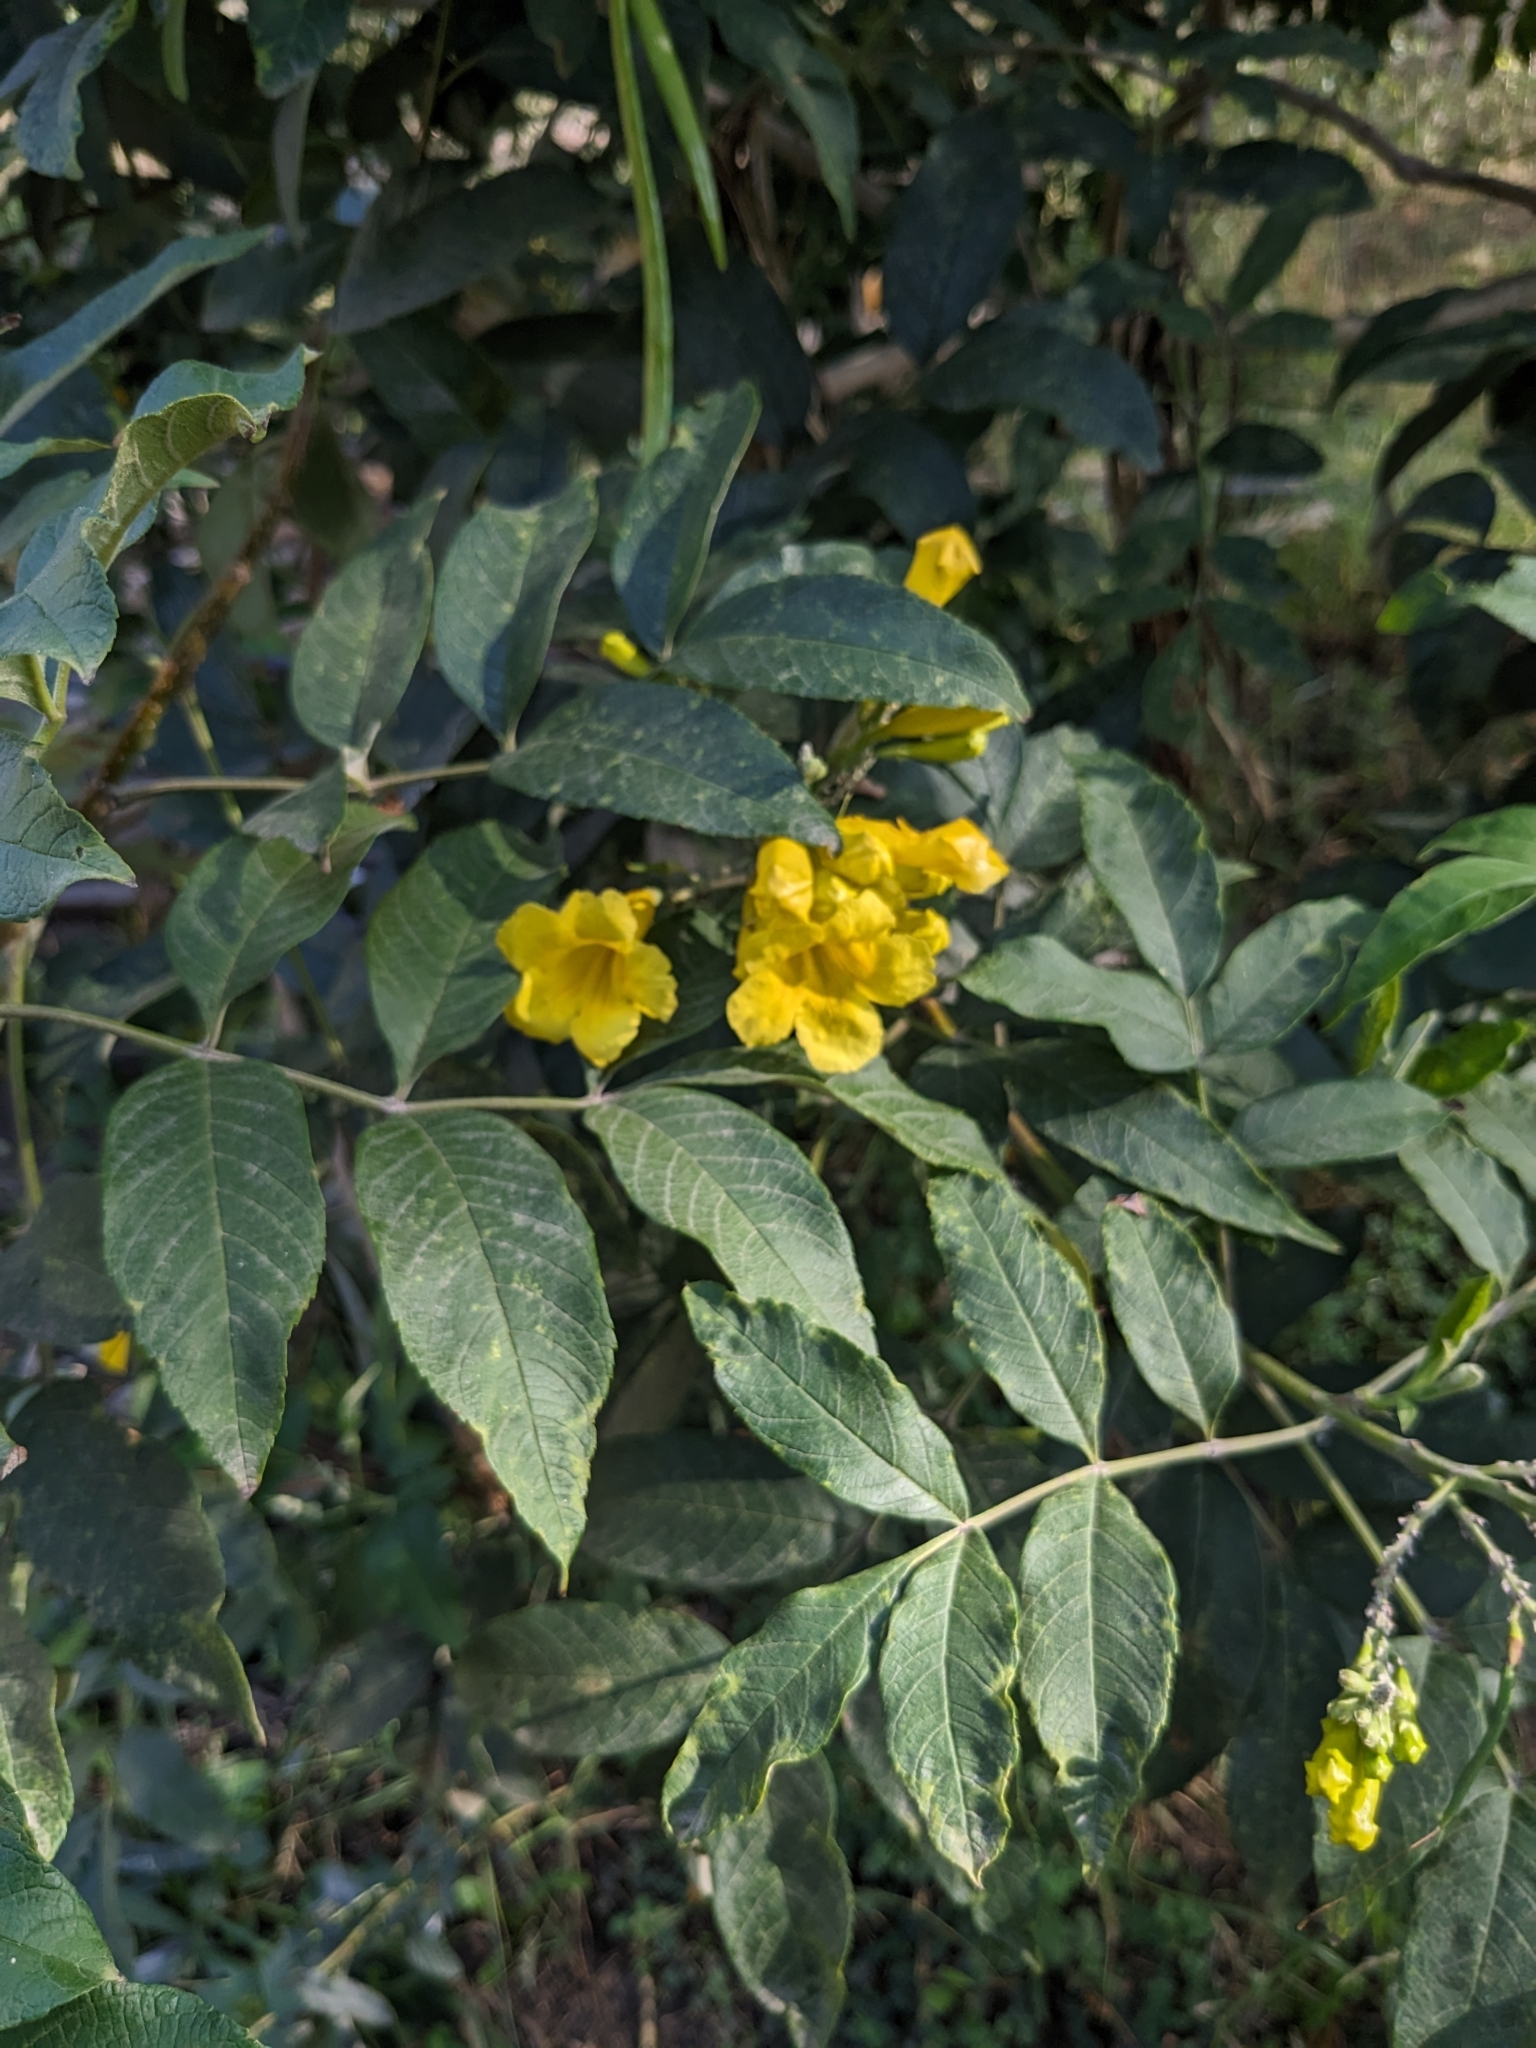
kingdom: Plantae
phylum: Tracheophyta
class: Magnoliopsida
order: Lamiales
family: Bignoniaceae
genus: Tecoma
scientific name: Tecoma stans
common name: Yellow trumpetbush
